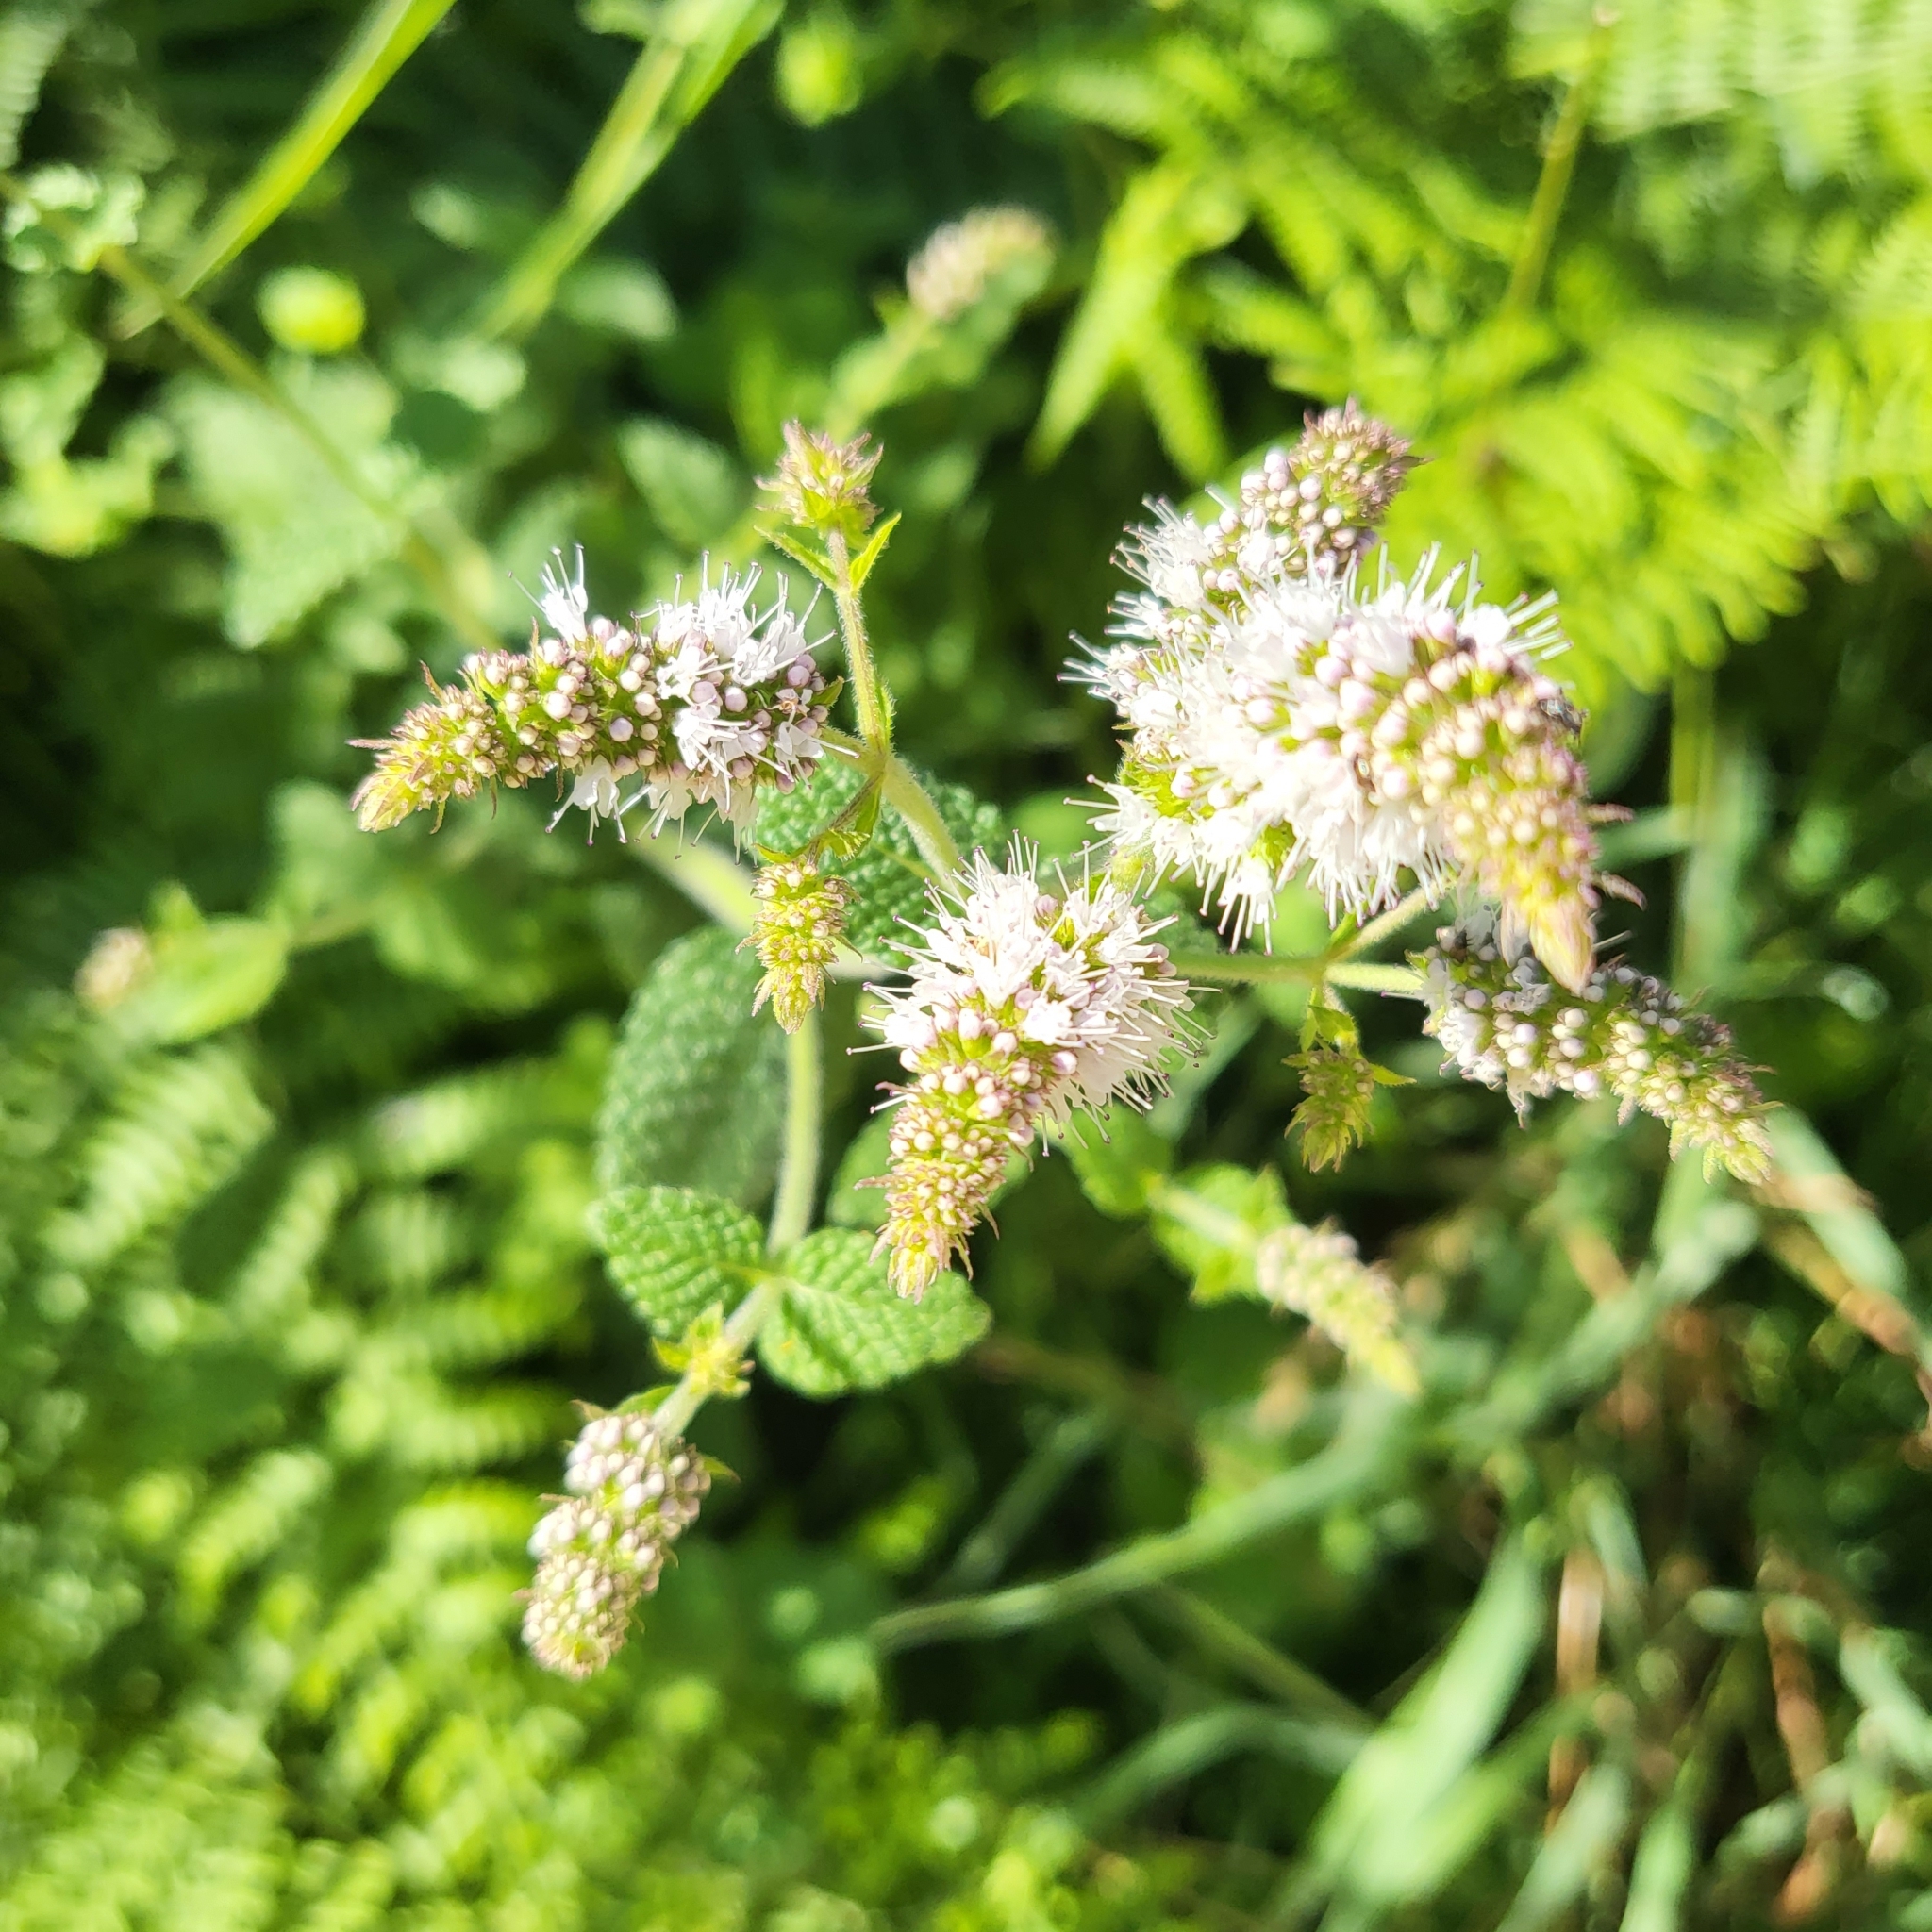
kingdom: Plantae
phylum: Tracheophyta
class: Magnoliopsida
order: Lamiales
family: Lamiaceae
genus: Mentha
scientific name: Mentha suaveolens
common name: Apple mint
